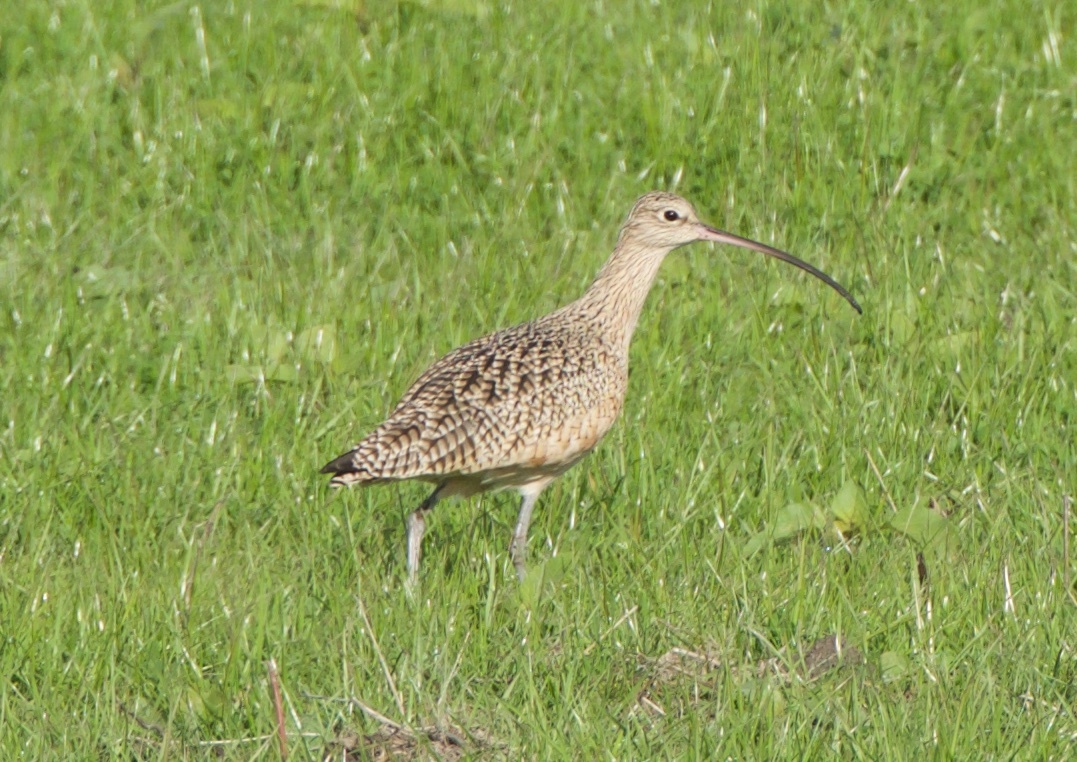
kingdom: Animalia
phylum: Chordata
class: Aves
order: Charadriiformes
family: Scolopacidae
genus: Numenius
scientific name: Numenius americanus
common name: Long-billed curlew
